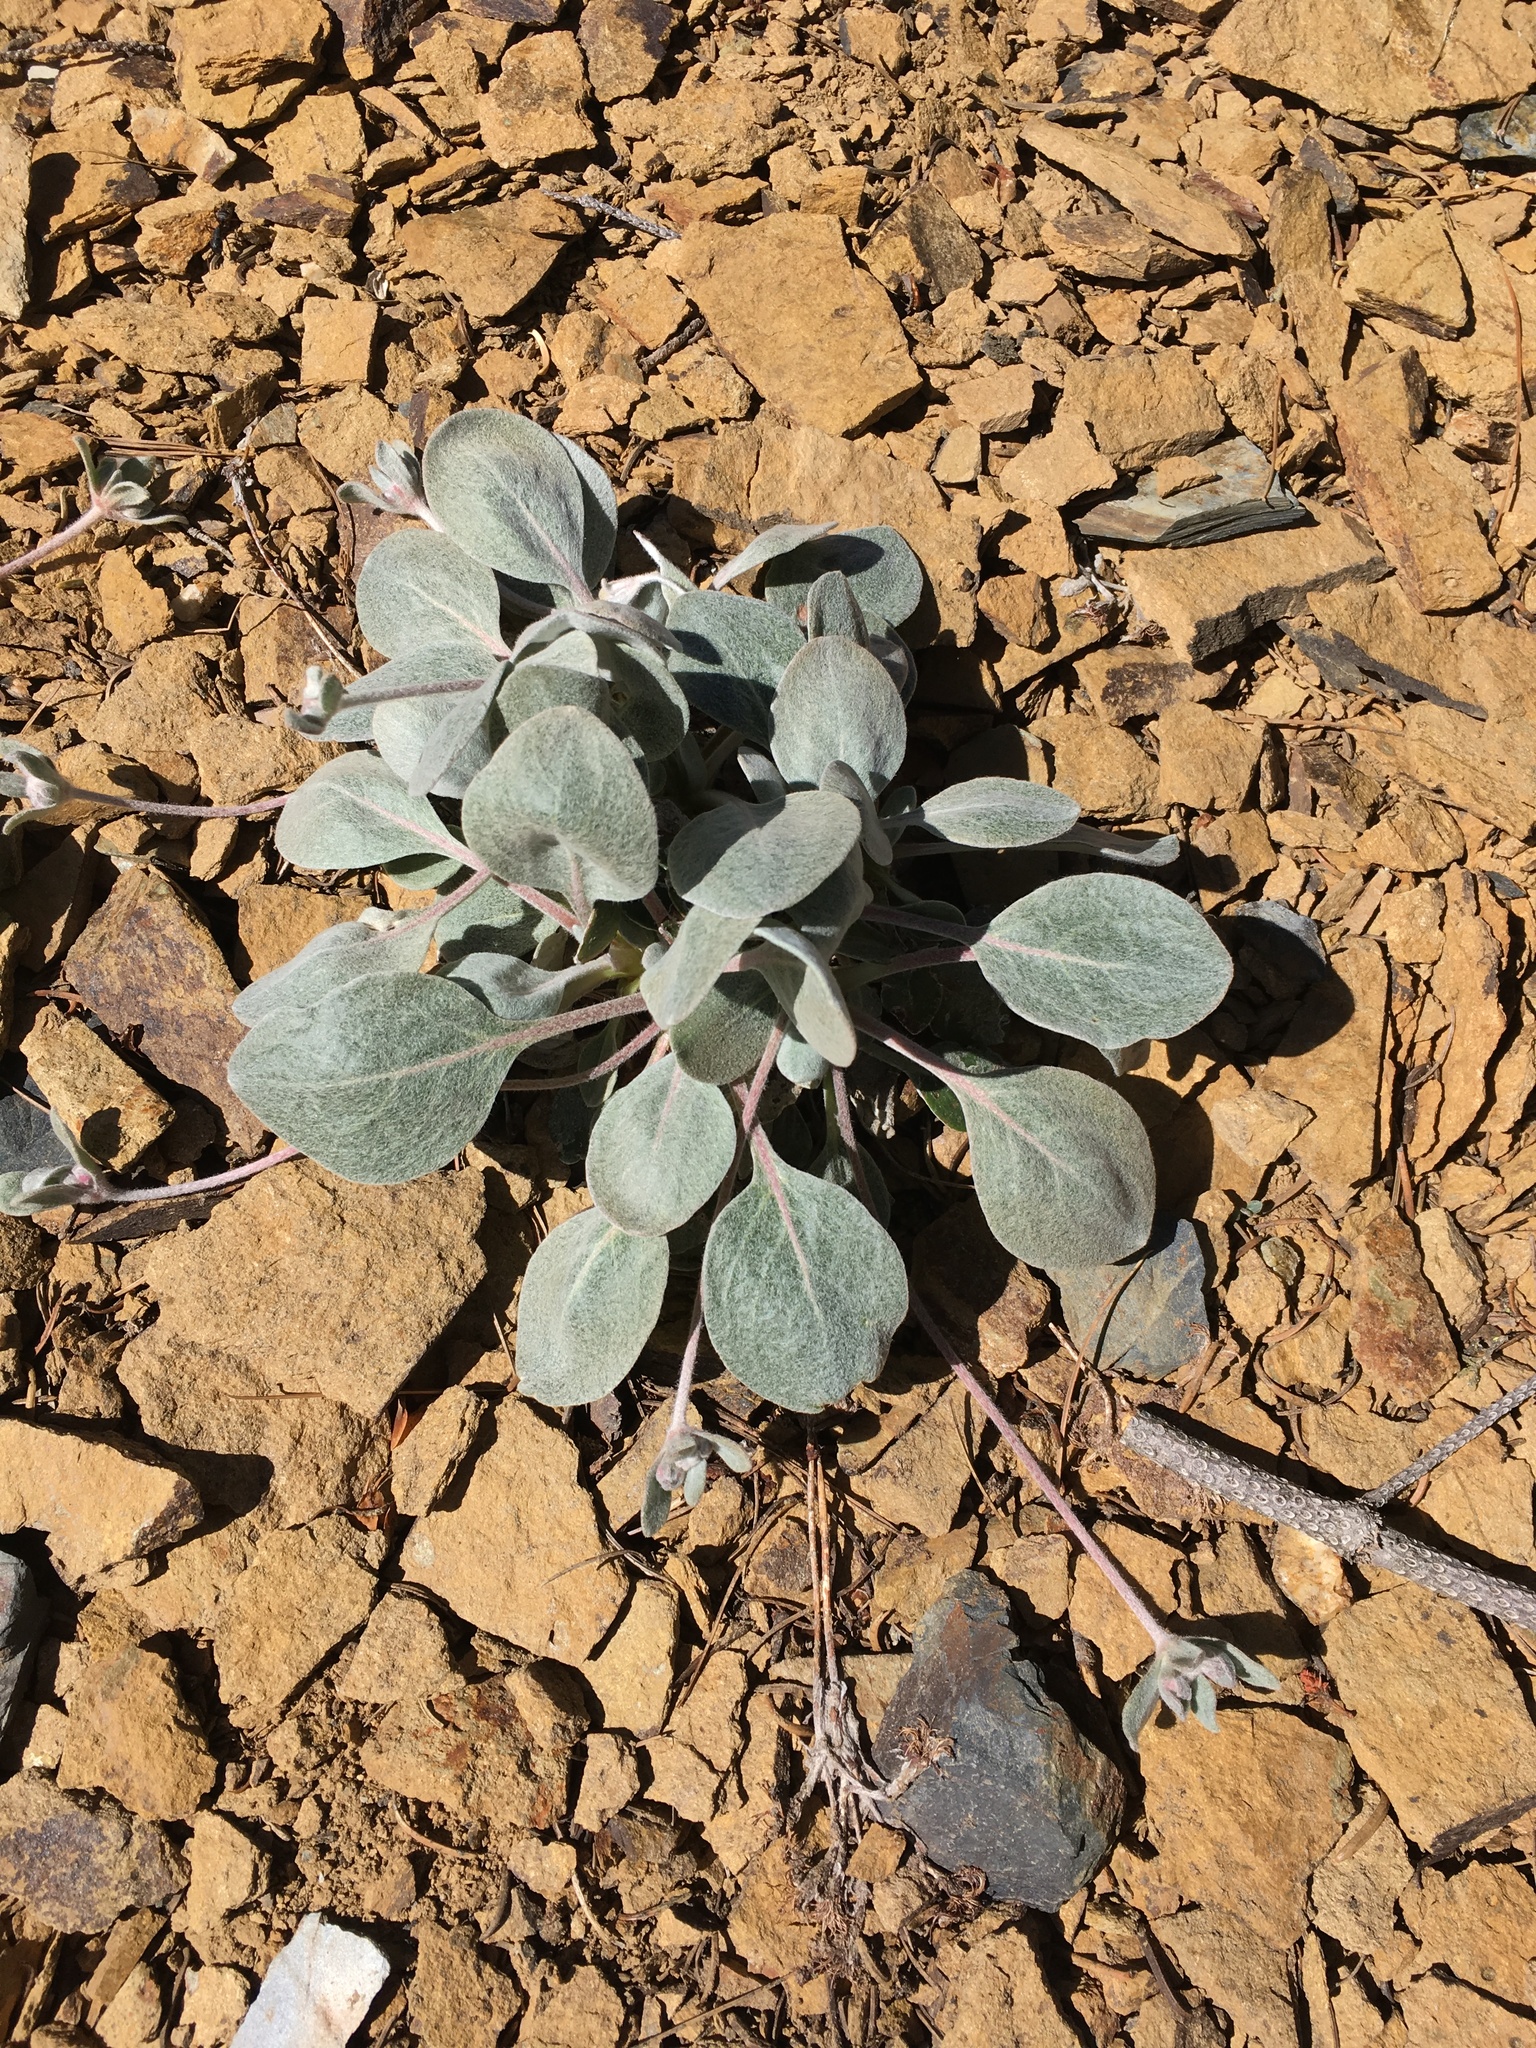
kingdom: Plantae
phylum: Tracheophyta
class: Magnoliopsida
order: Caryophyllales
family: Polygonaceae
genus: Eriogonum
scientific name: Eriogonum lobbii
